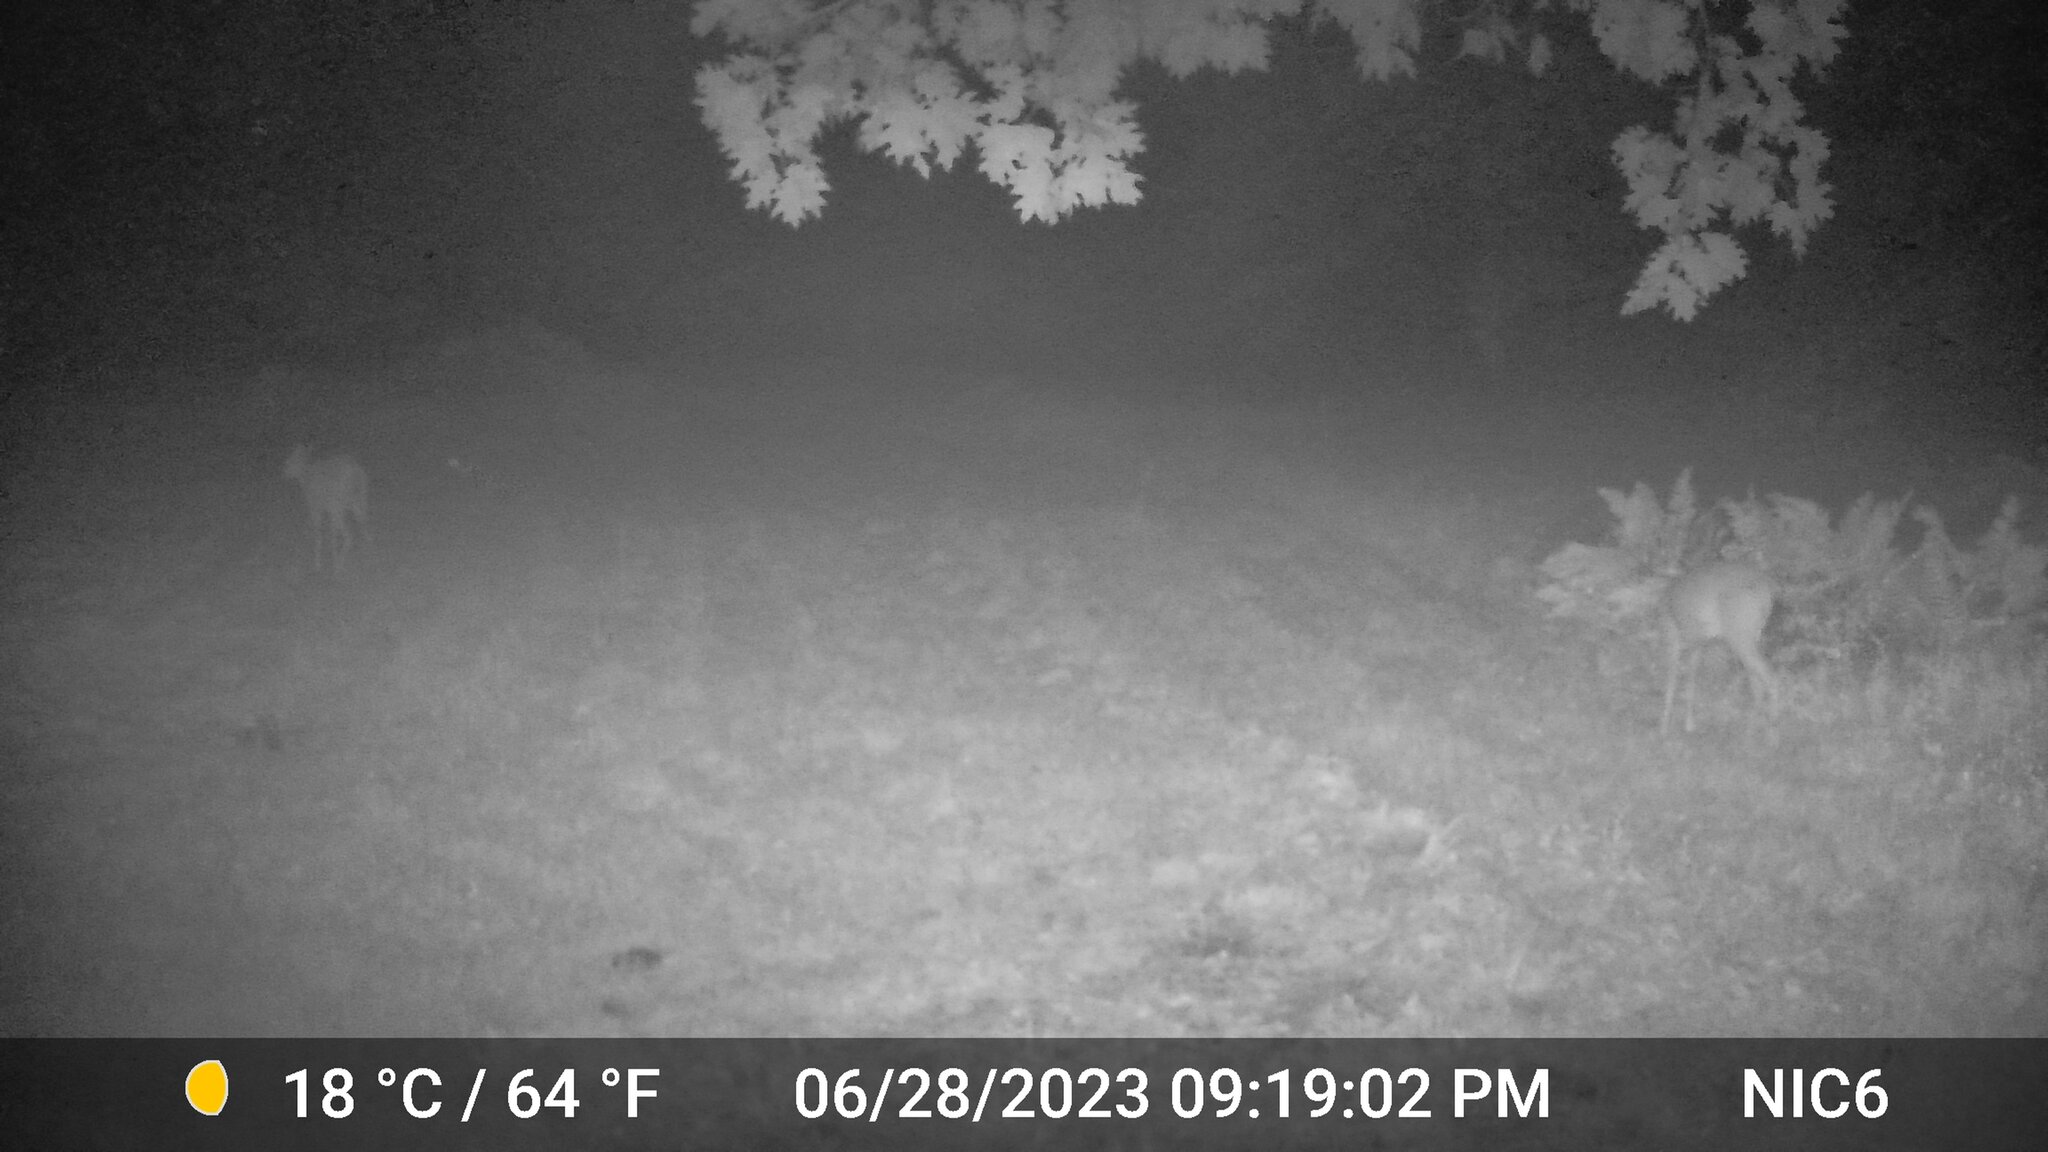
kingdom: Animalia
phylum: Chordata
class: Mammalia
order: Artiodactyla
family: Cervidae
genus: Odocoileus
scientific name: Odocoileus virginianus
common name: White-tailed deer
